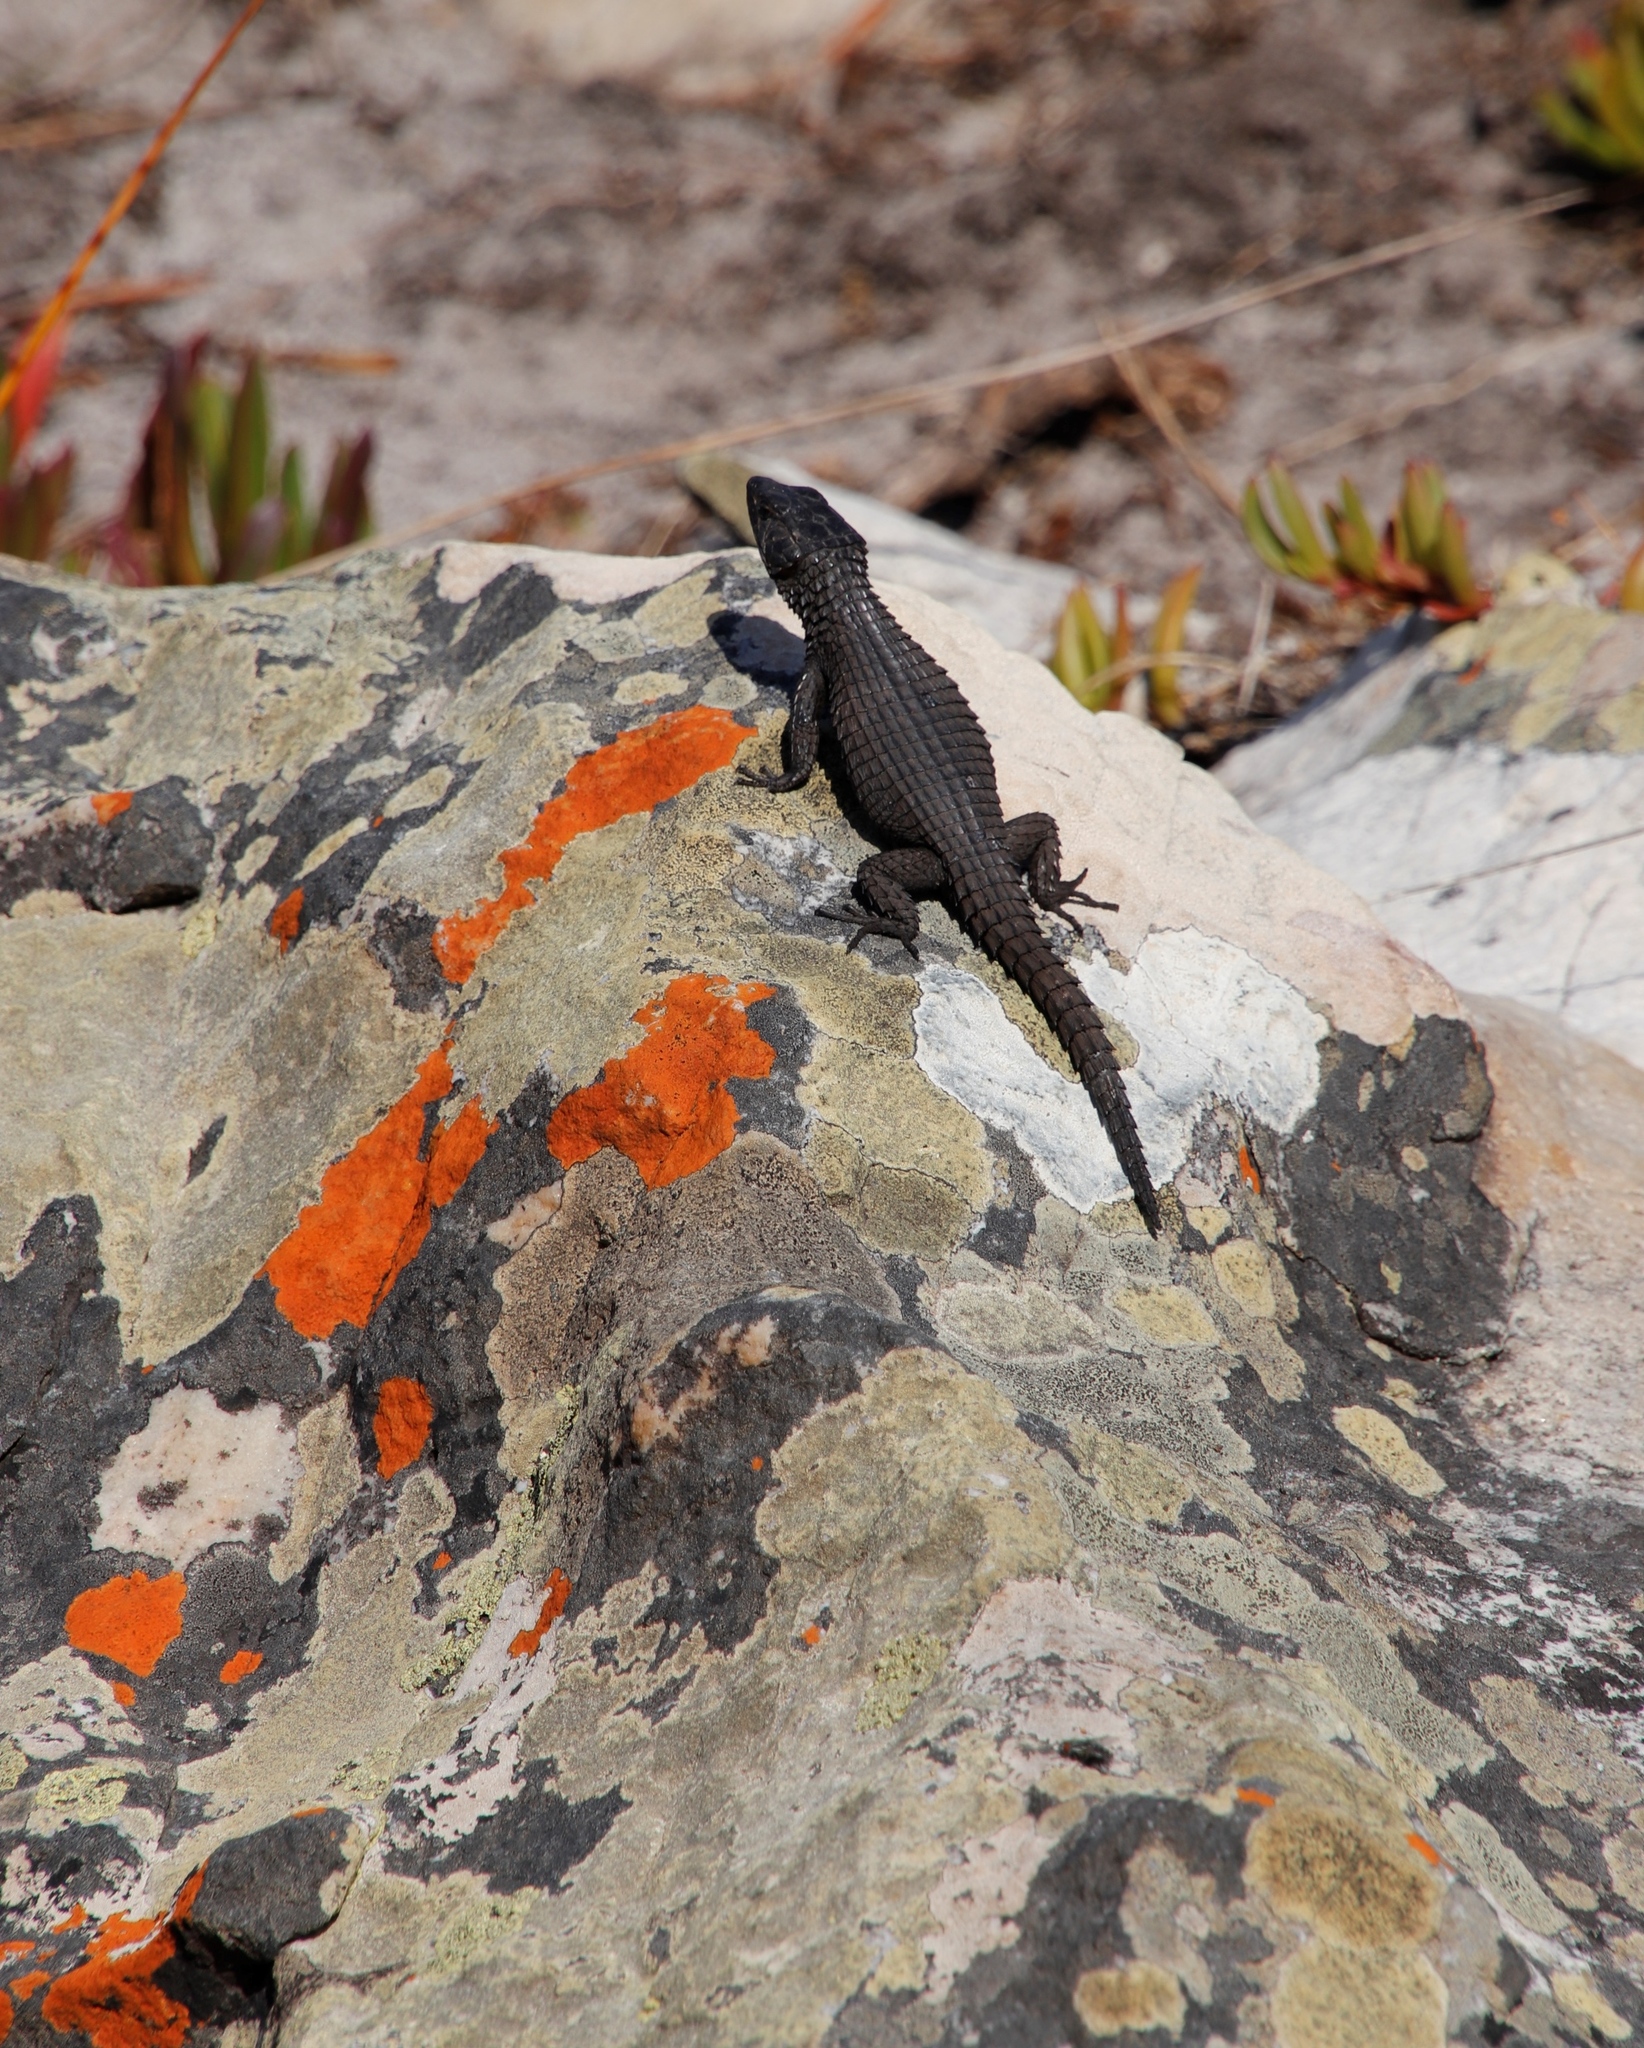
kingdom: Animalia
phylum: Chordata
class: Squamata
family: Cordylidae
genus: Cordylus
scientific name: Cordylus niger
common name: Black girdled lizard
